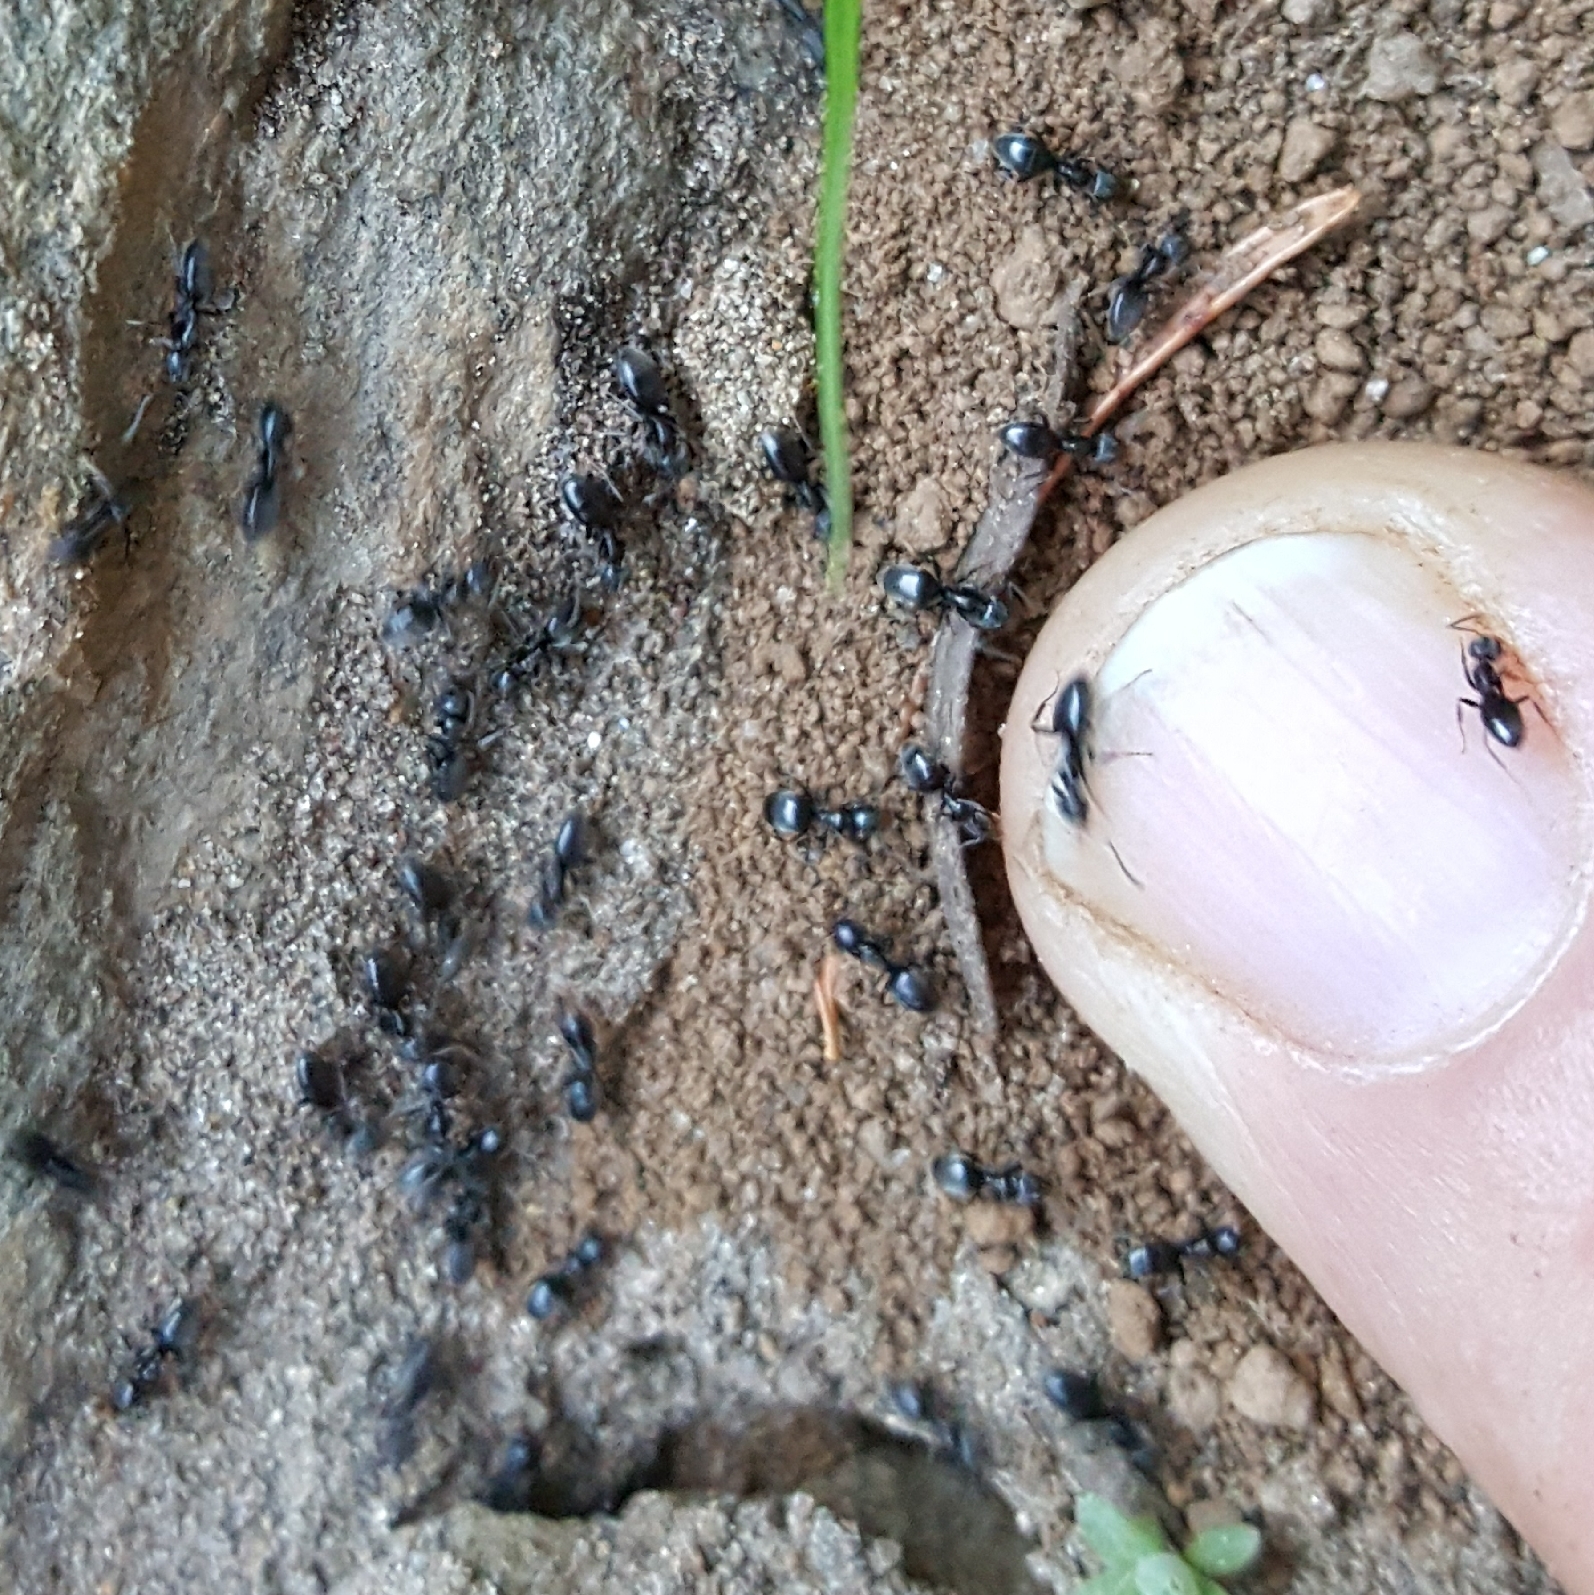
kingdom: Animalia
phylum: Arthropoda
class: Insecta
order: Hymenoptera
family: Formicidae
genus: Tapinoma
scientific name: Tapinoma sessile
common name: Odorous house ant
